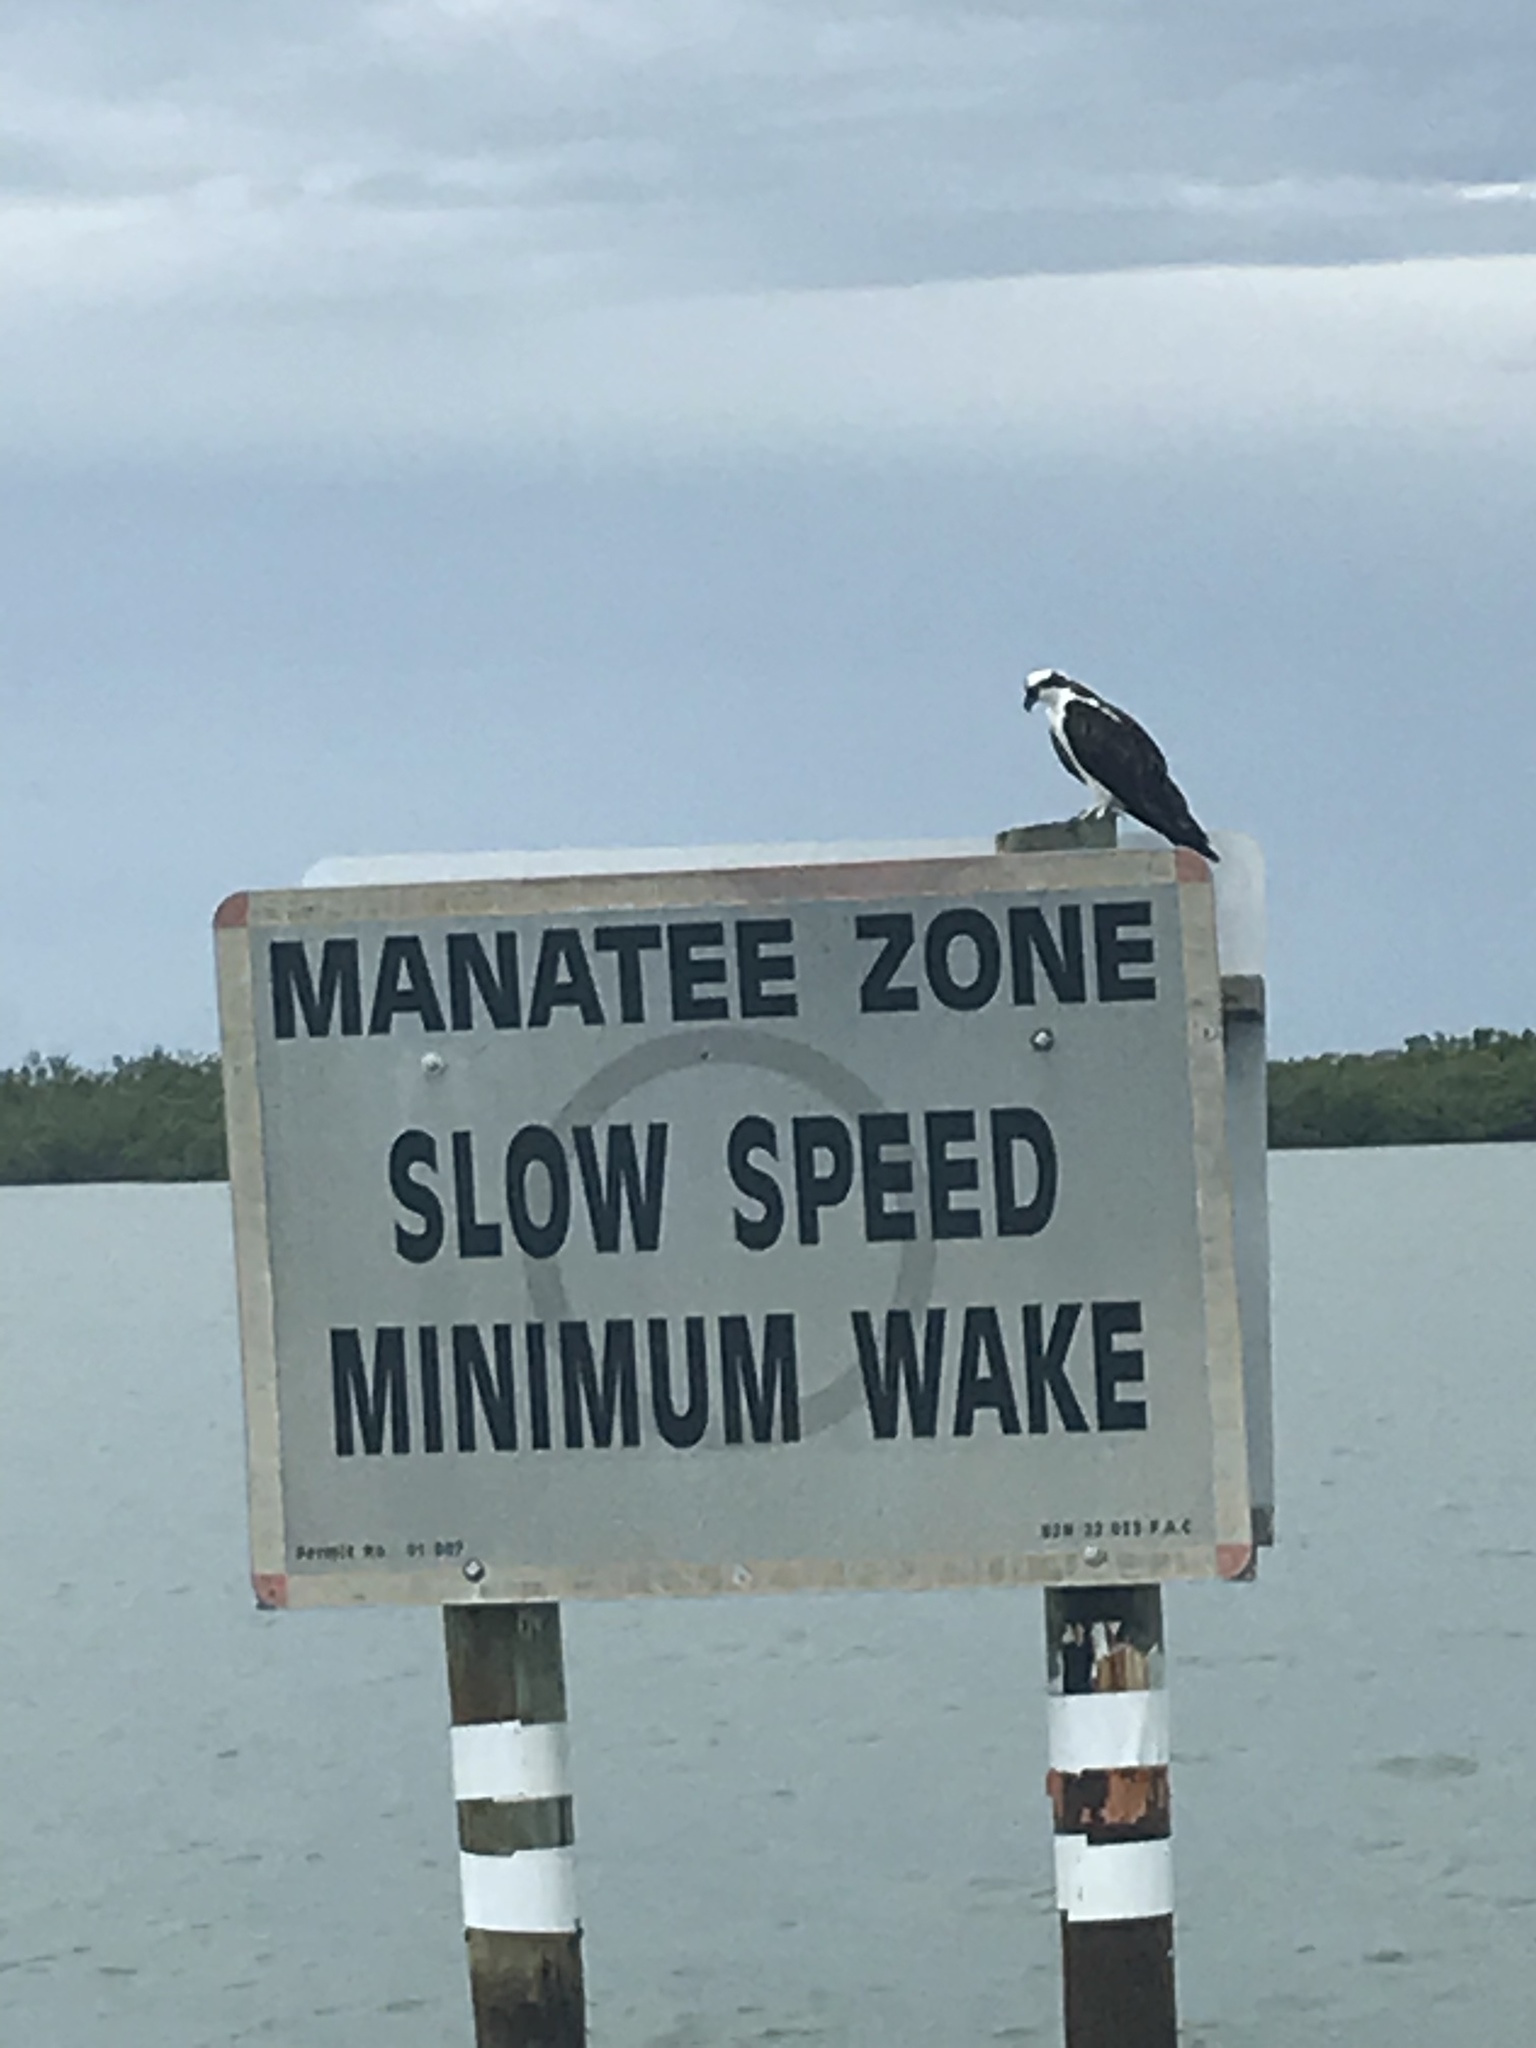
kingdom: Animalia
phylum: Chordata
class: Aves
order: Accipitriformes
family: Pandionidae
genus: Pandion
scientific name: Pandion haliaetus
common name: Osprey
